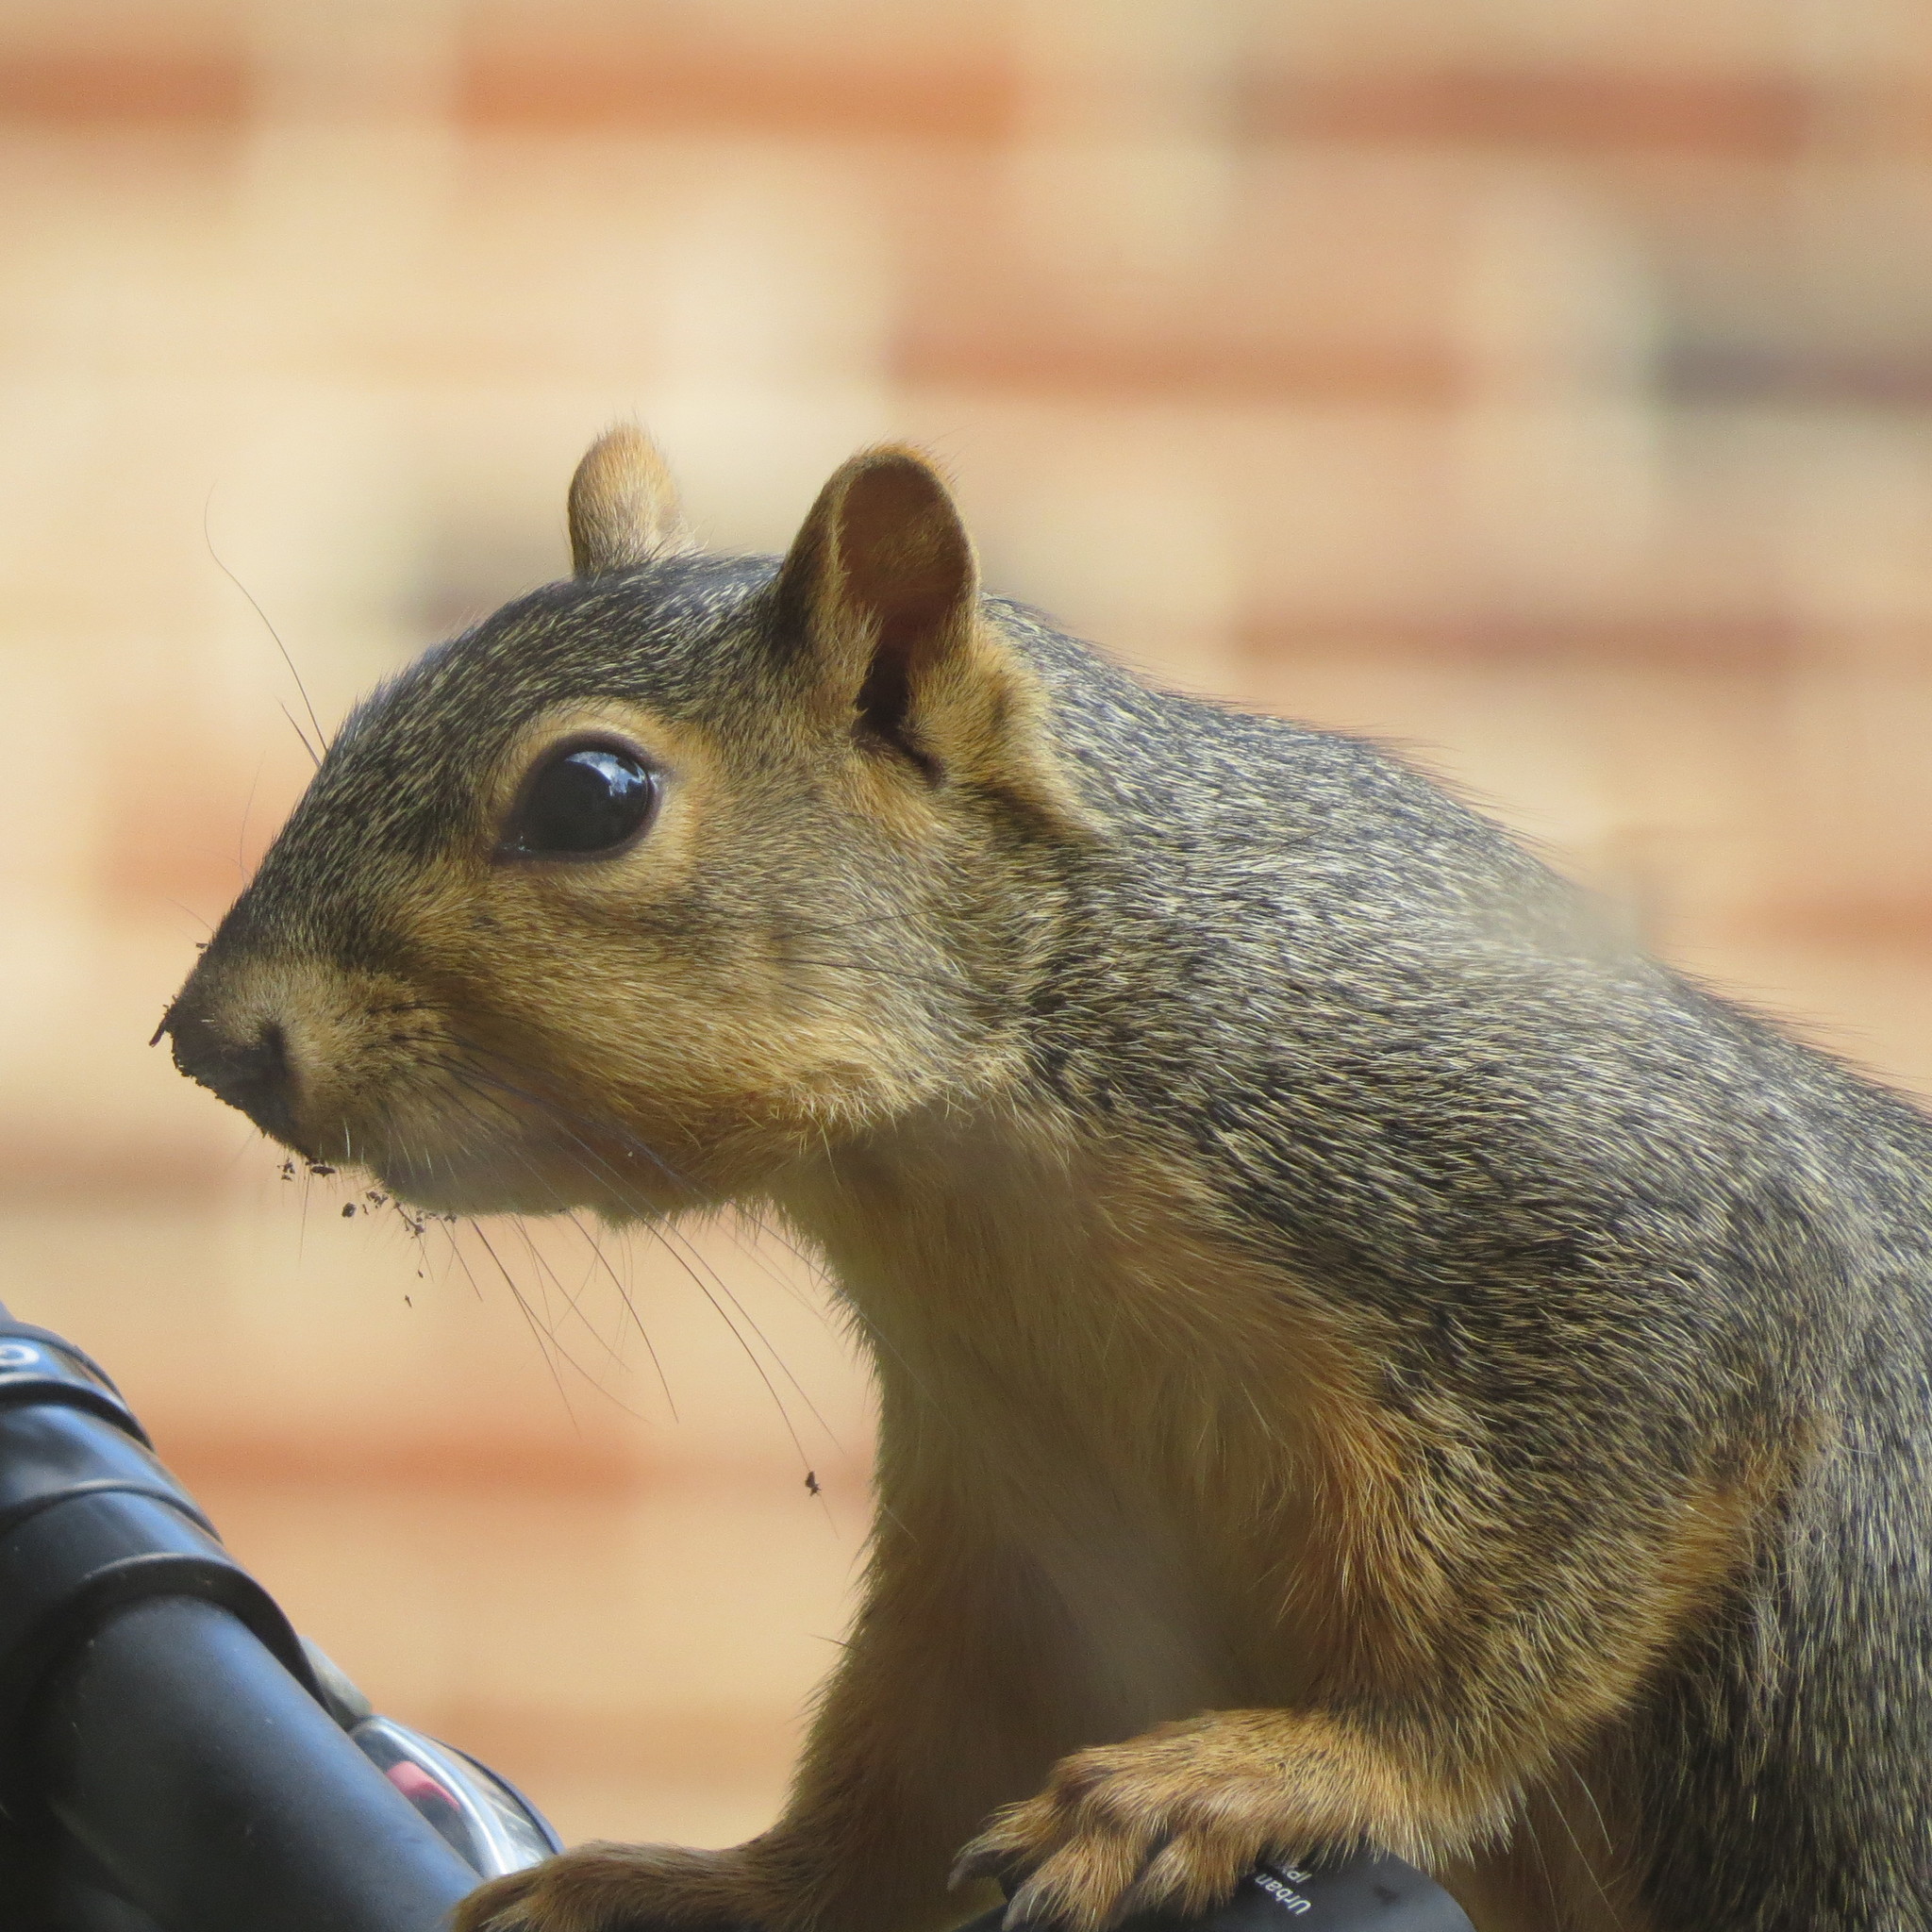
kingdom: Animalia
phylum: Chordata
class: Mammalia
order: Rodentia
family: Sciuridae
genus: Sciurus
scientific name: Sciurus niger
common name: Fox squirrel
